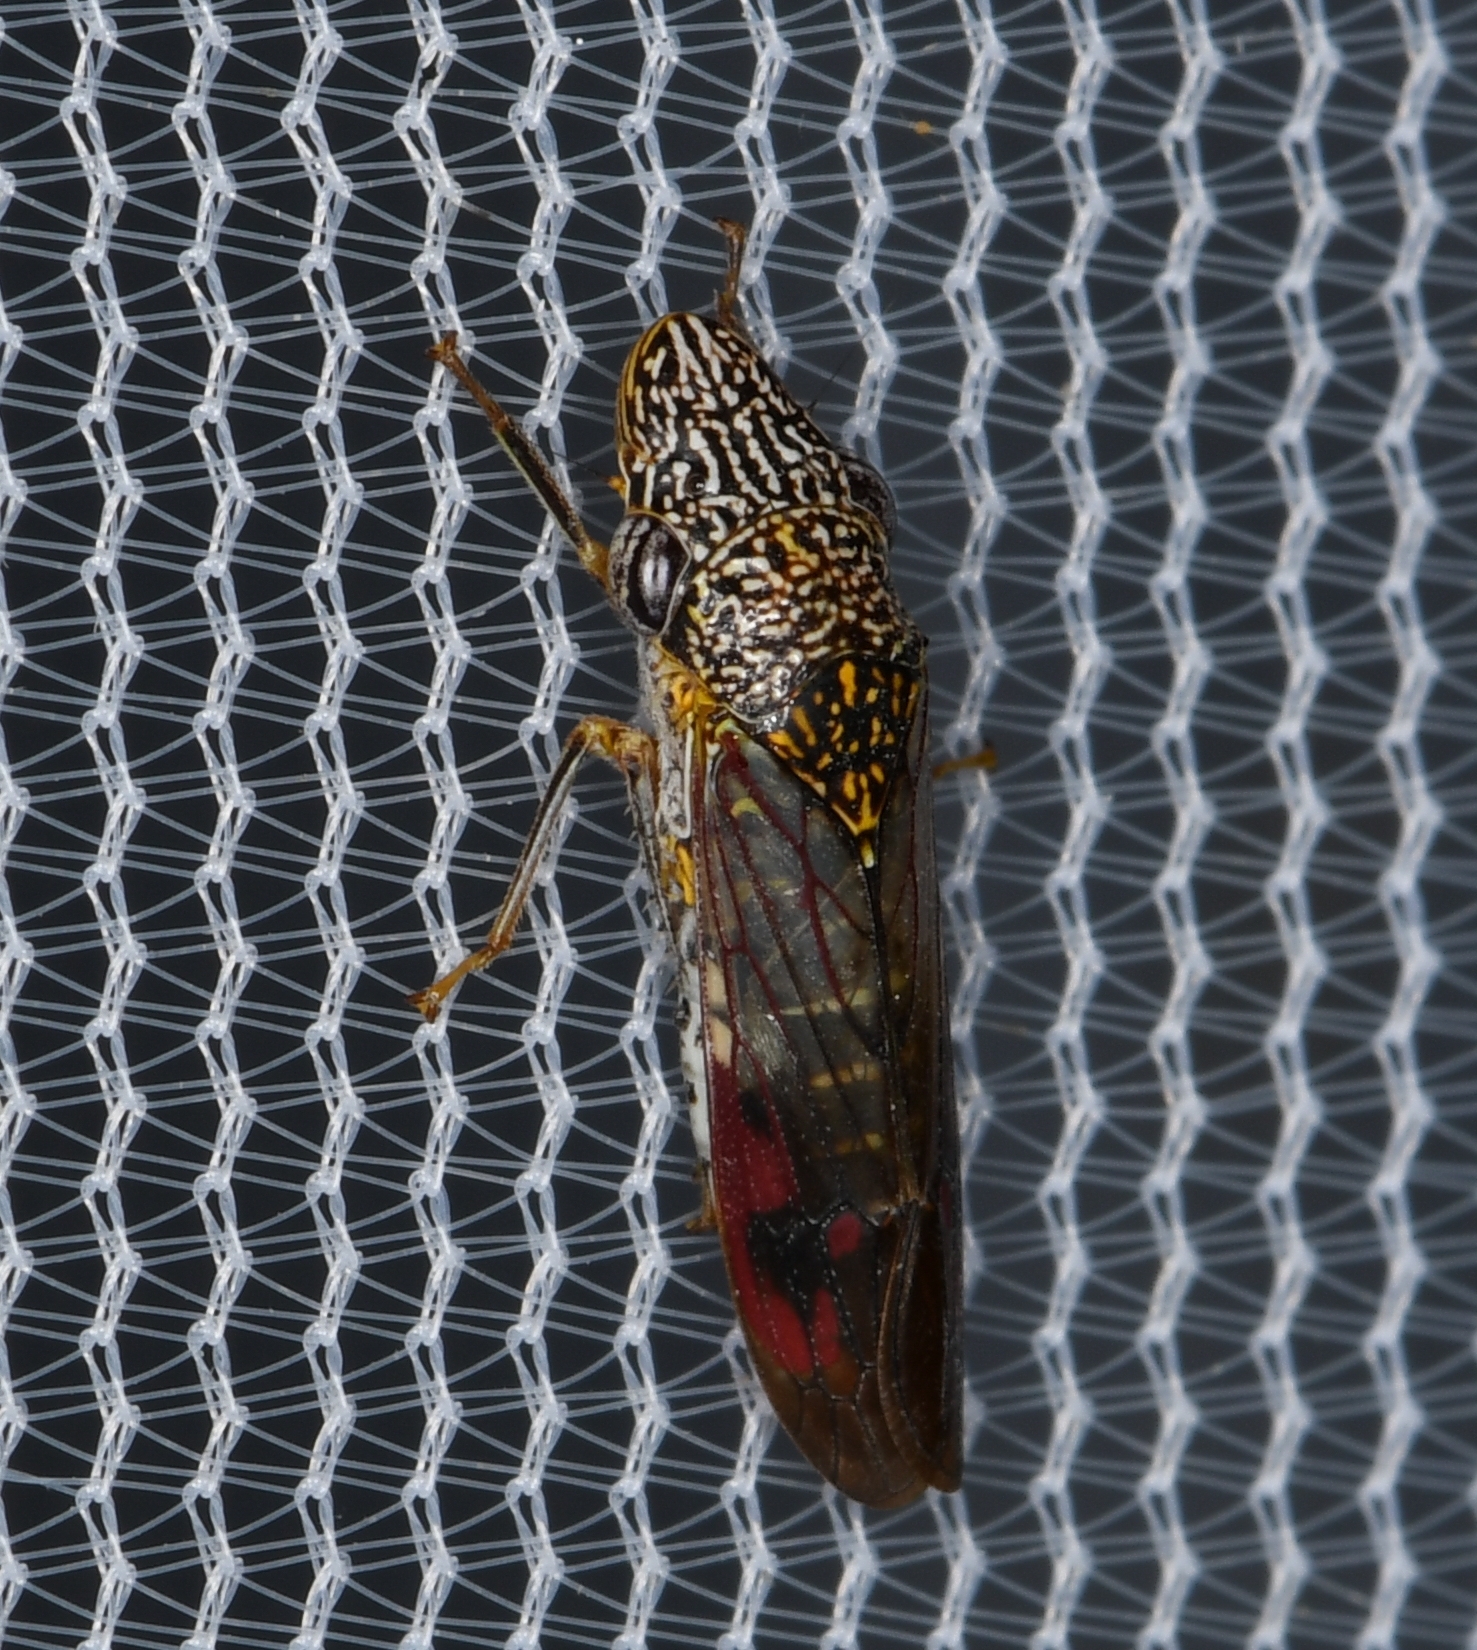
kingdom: Animalia
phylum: Arthropoda
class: Insecta
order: Hemiptera
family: Cicadellidae
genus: Homalodisca
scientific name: Homalodisca liturata
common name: Lacertate sharpshooter
